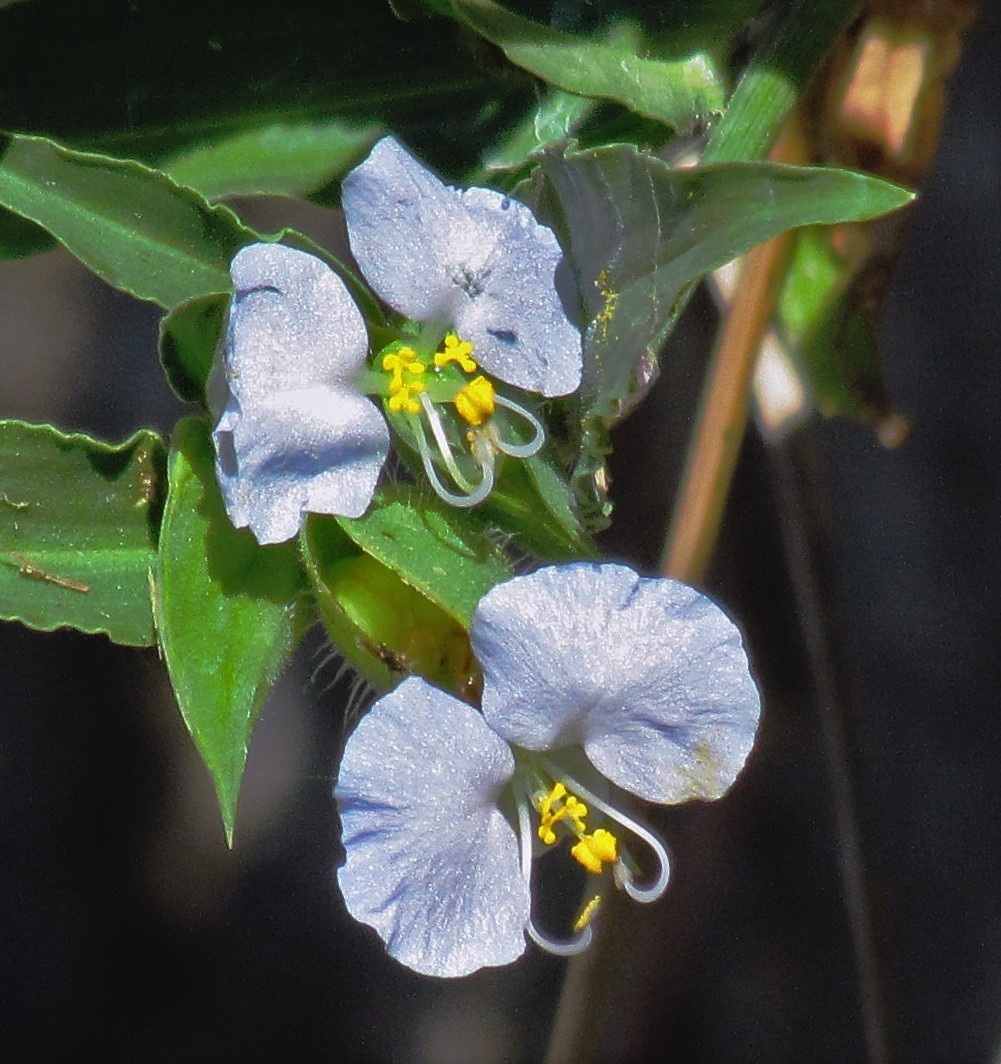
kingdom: Plantae
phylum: Tracheophyta
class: Liliopsida
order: Commelinales
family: Commelinaceae
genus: Commelina
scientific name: Commelina erecta
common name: Blousel blommetjie
